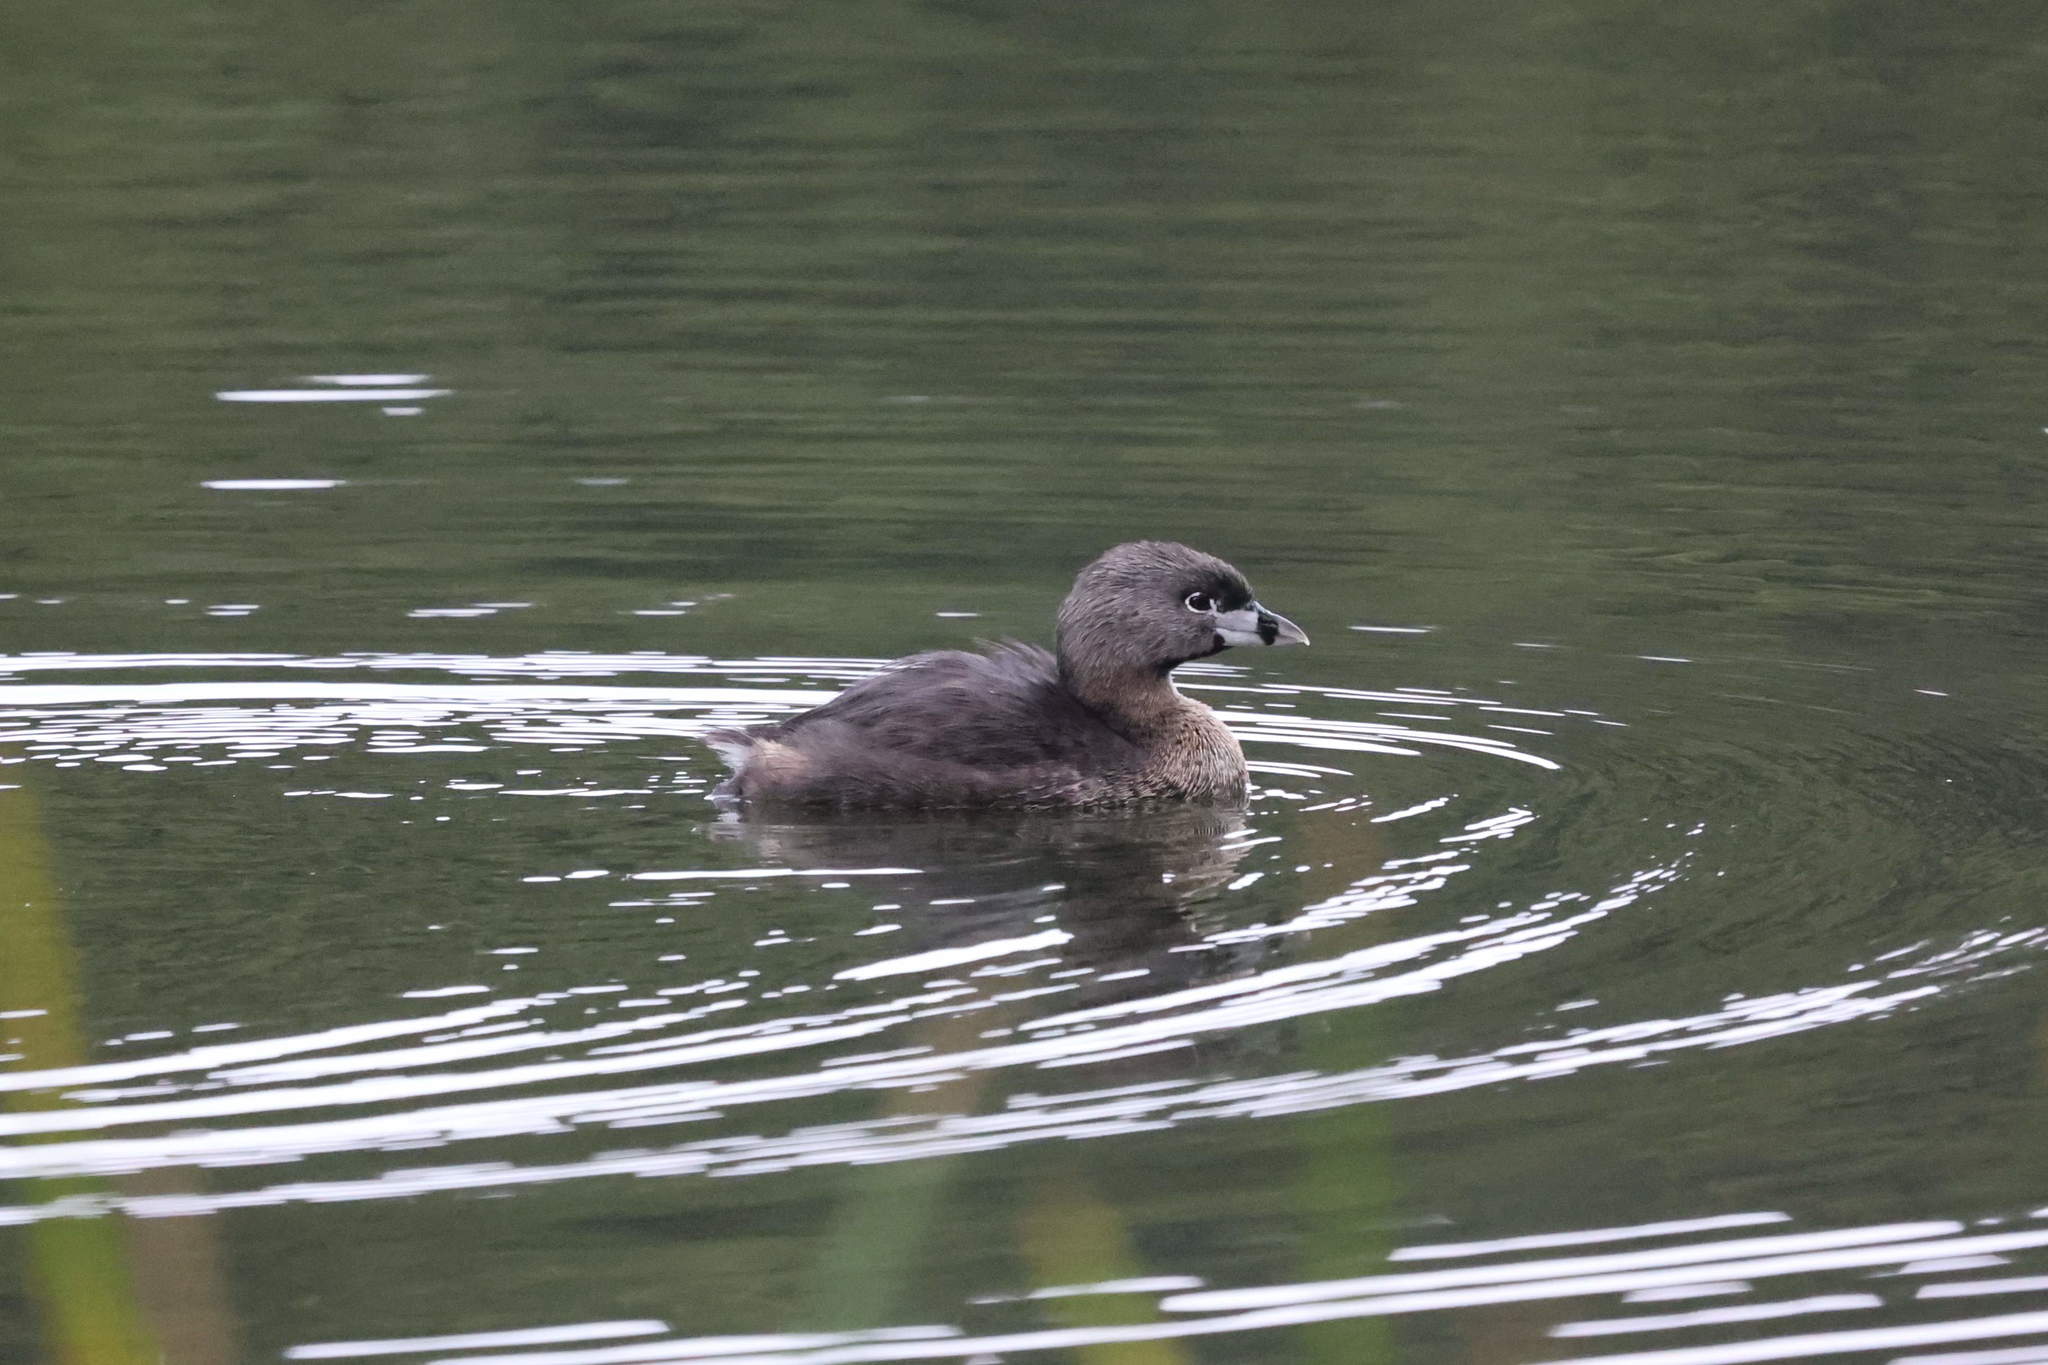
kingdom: Animalia
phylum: Chordata
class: Aves
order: Podicipediformes
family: Podicipedidae
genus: Podilymbus
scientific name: Podilymbus podiceps
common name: Pied-billed grebe
